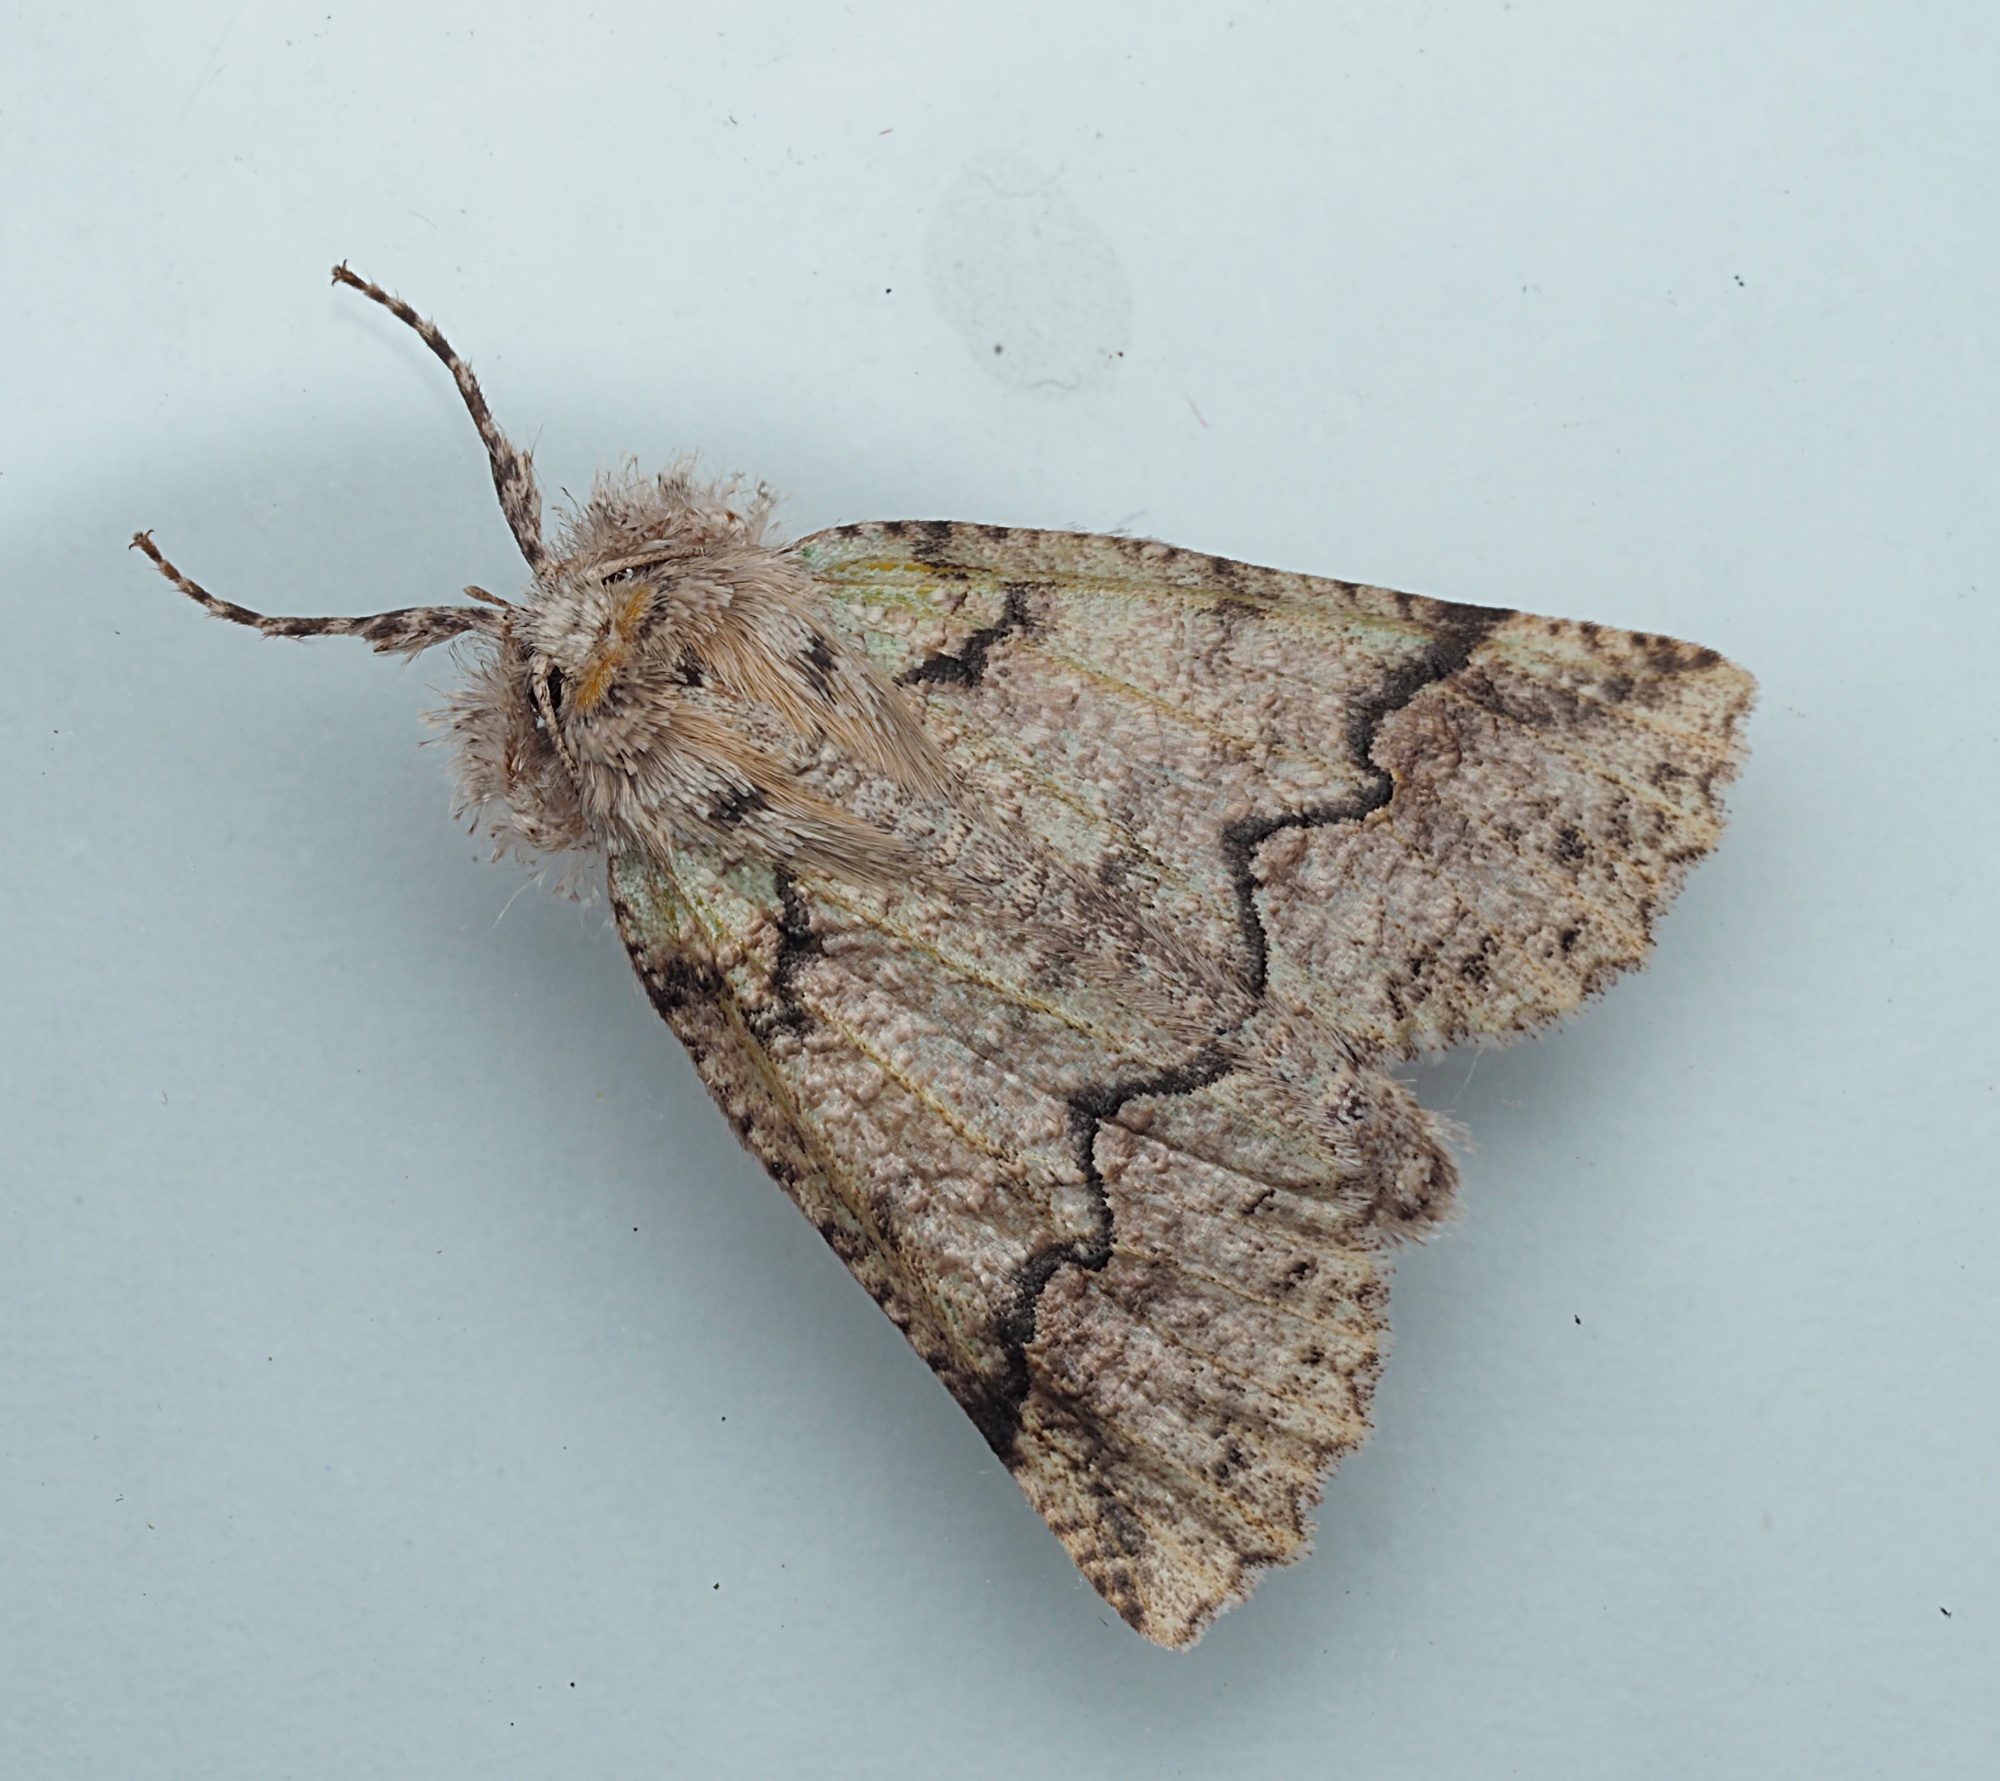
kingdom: Animalia
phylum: Arthropoda
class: Insecta
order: Lepidoptera
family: Geometridae
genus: Declana
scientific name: Declana floccosa
